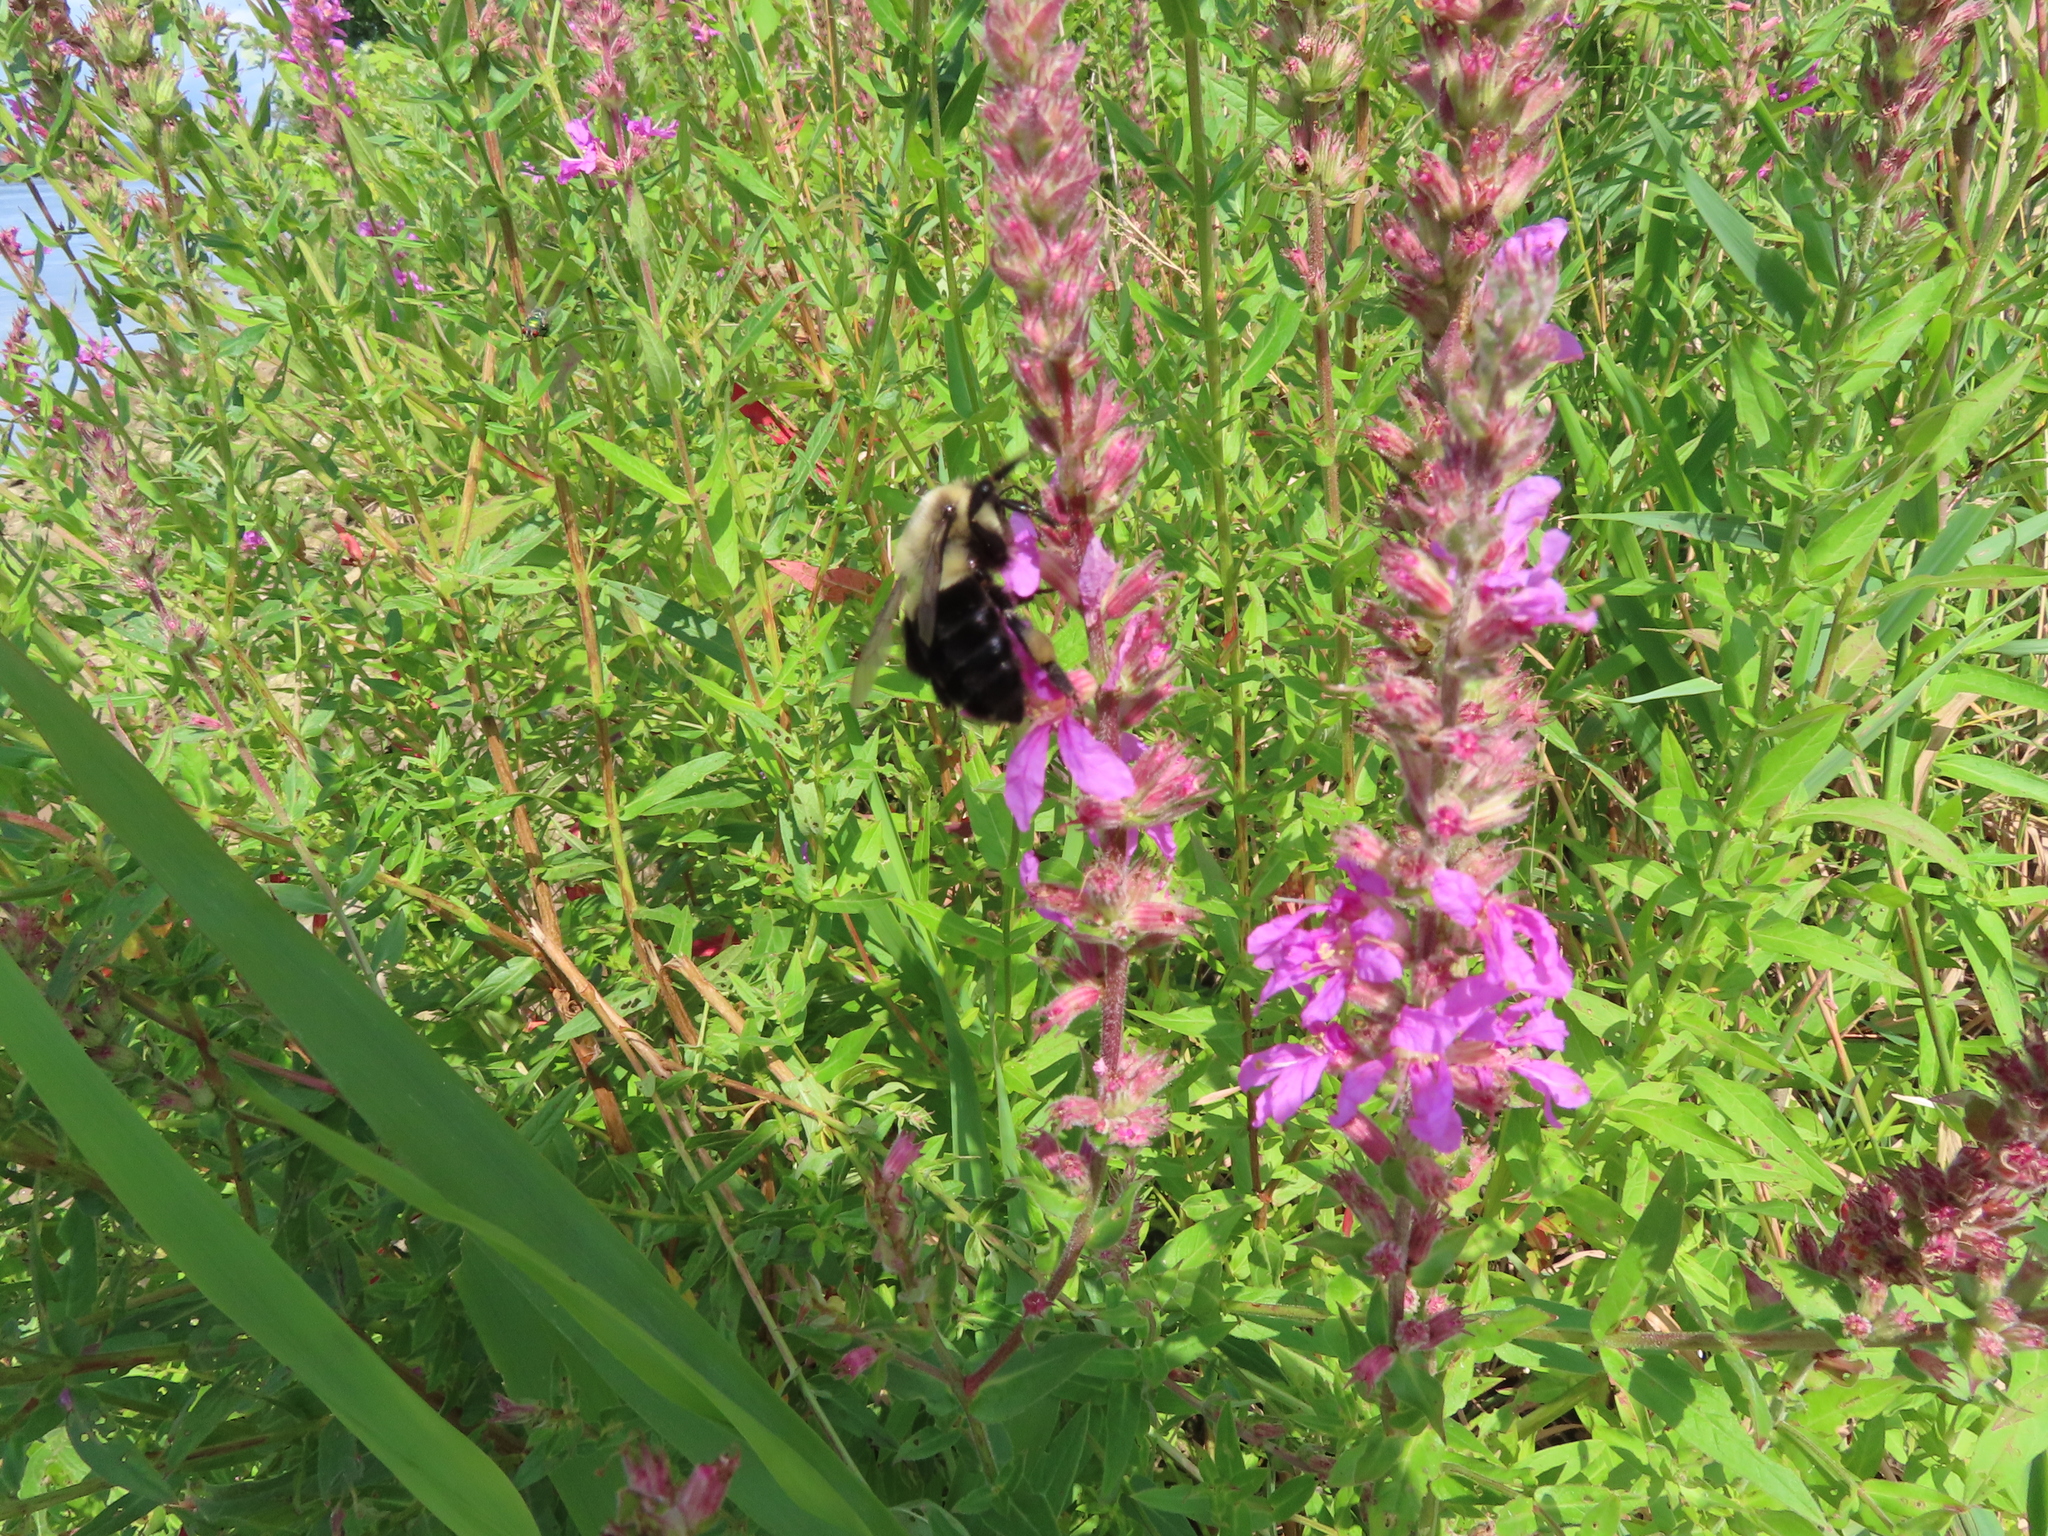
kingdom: Animalia
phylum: Arthropoda
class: Insecta
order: Hymenoptera
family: Apidae
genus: Bombus
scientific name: Bombus impatiens
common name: Common eastern bumble bee
